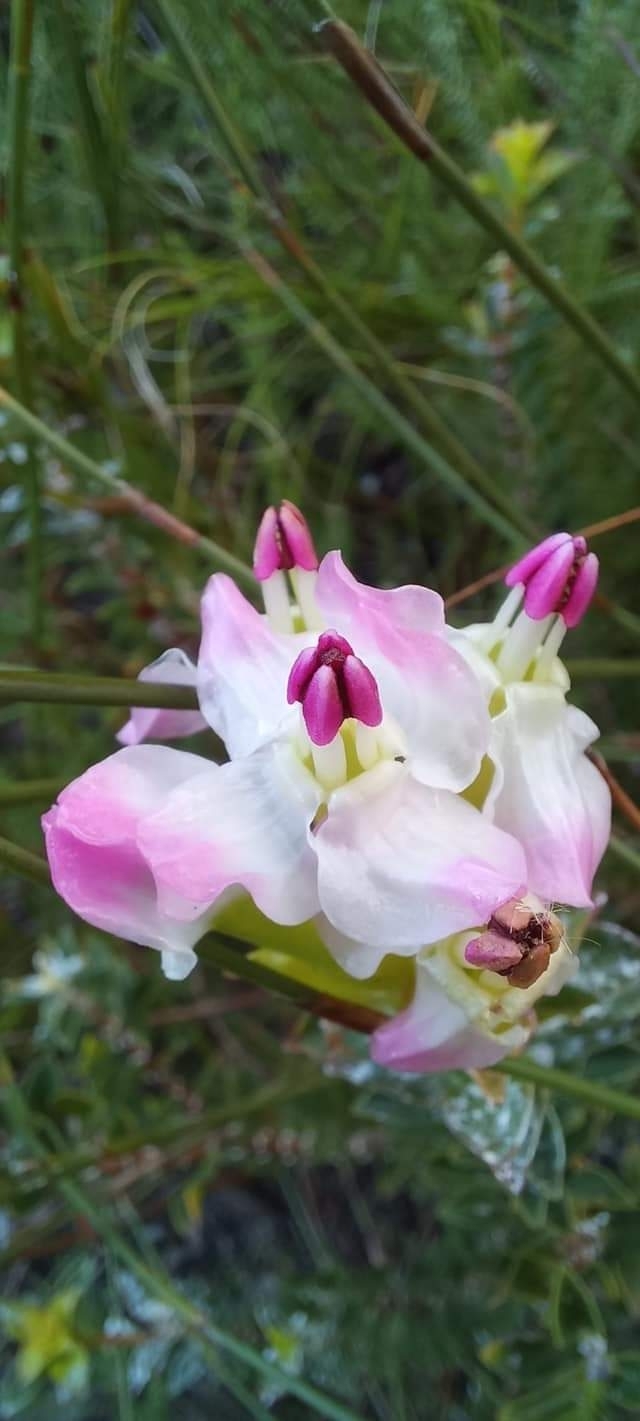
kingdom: Plantae
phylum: Tracheophyta
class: Magnoliopsida
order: Myrtales
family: Penaeaceae
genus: Saltera
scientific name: Saltera sarcocolla
